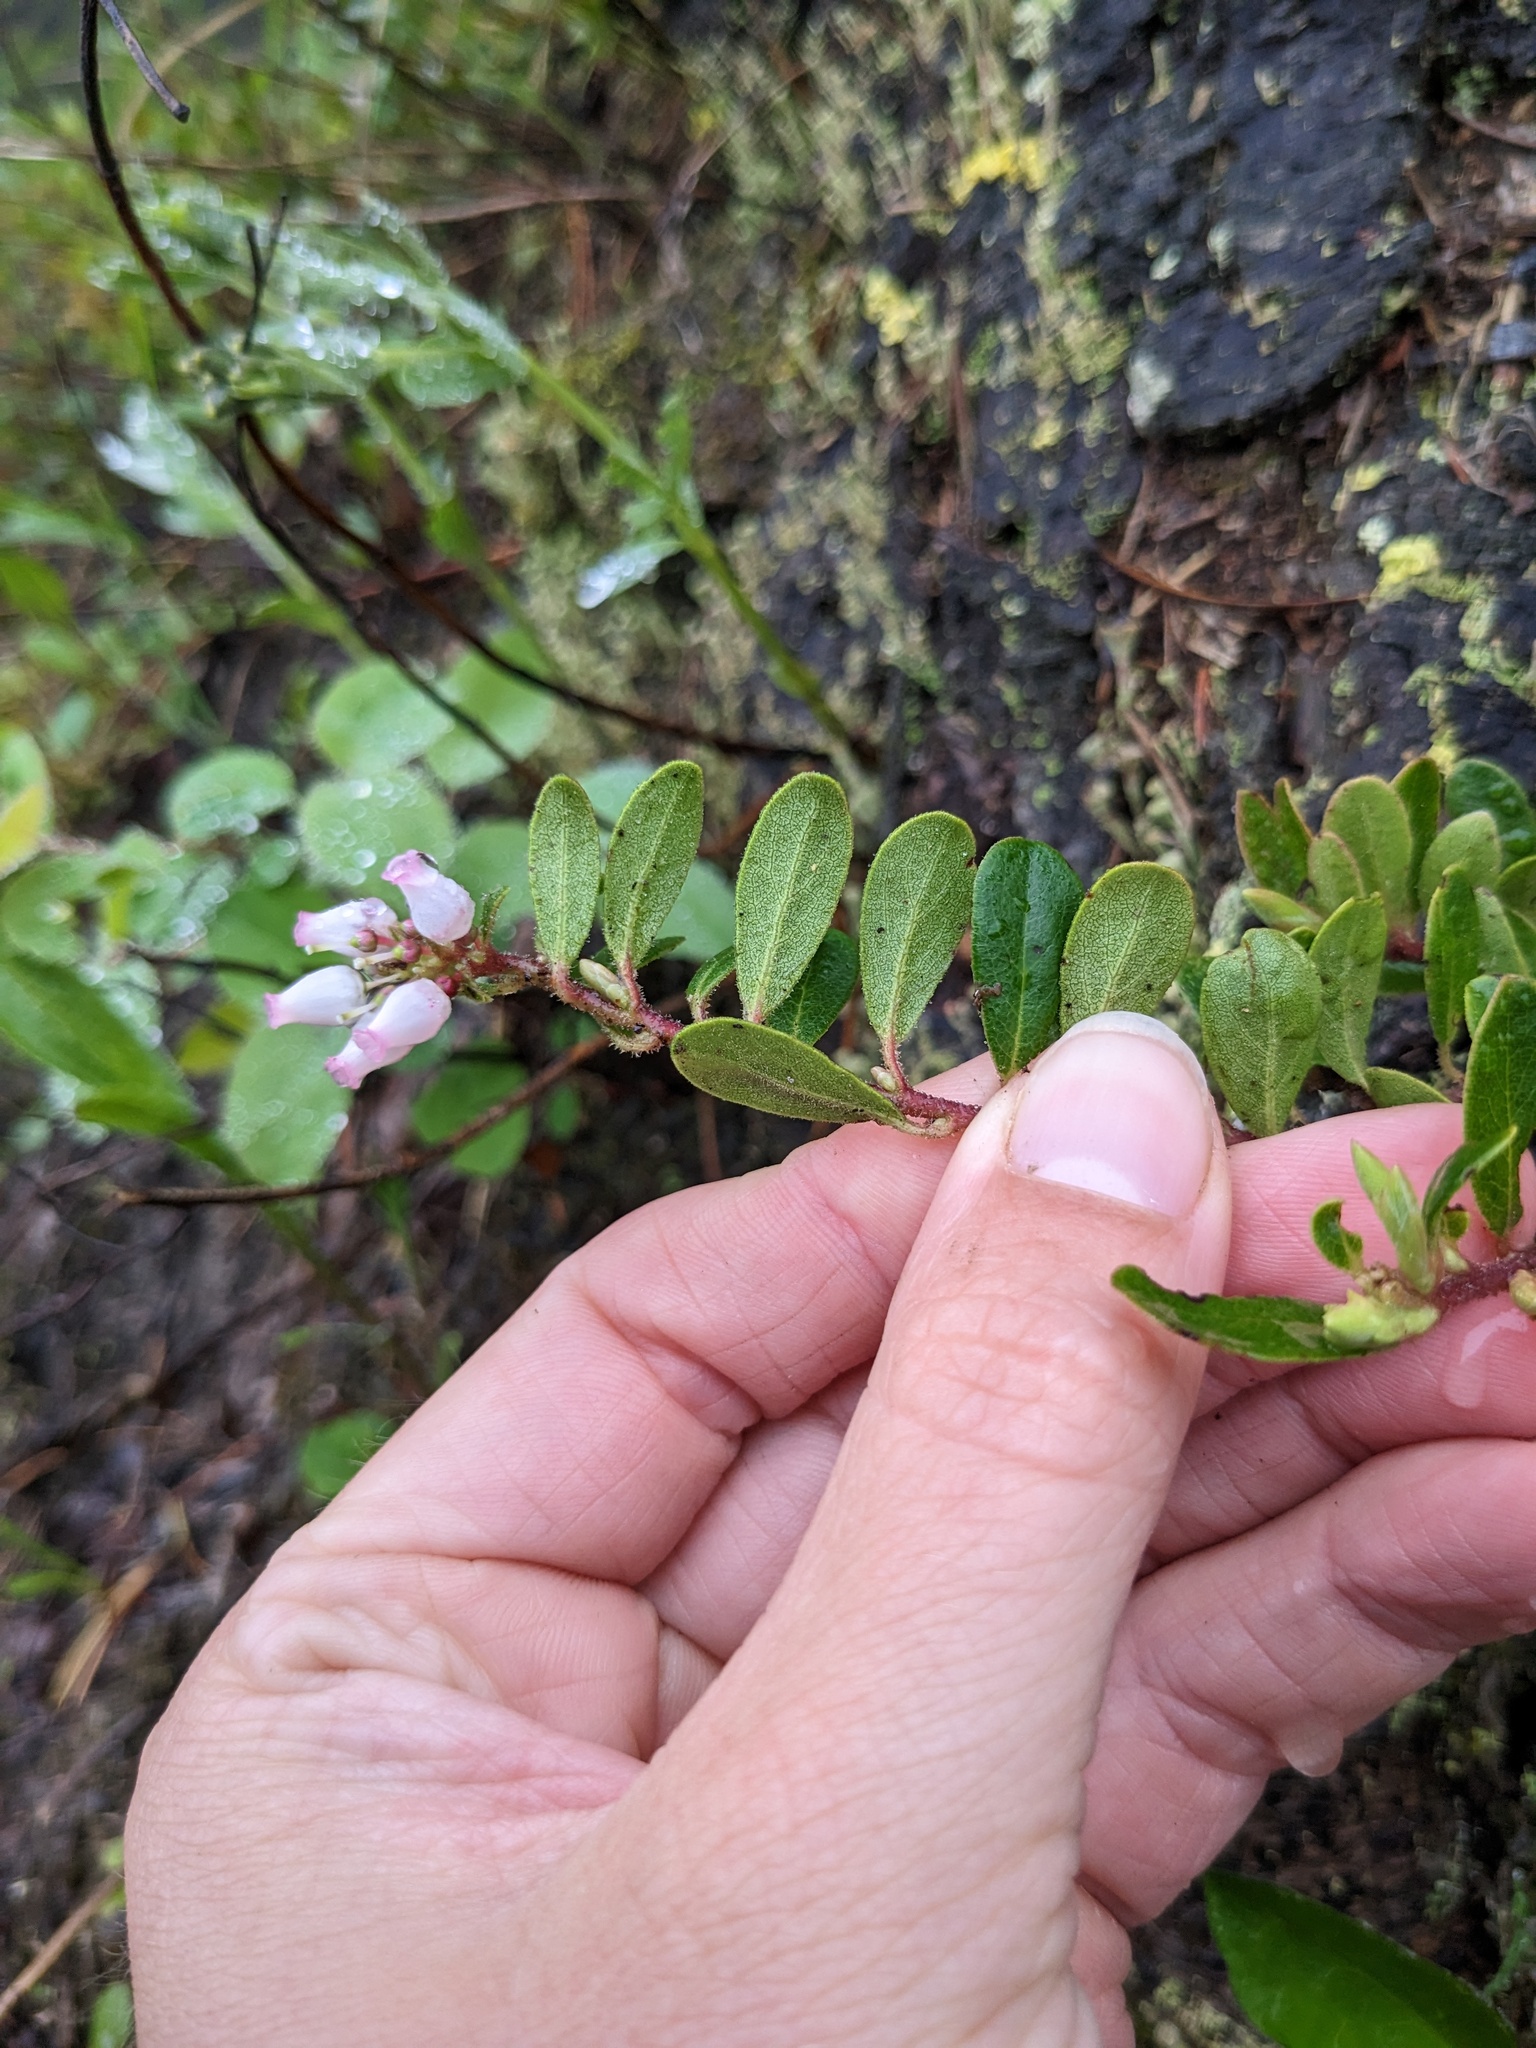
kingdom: Plantae
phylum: Tracheophyta
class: Magnoliopsida
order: Ericales
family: Ericaceae
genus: Arctostaphylos
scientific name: Arctostaphylos uva-ursi
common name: Bearberry
